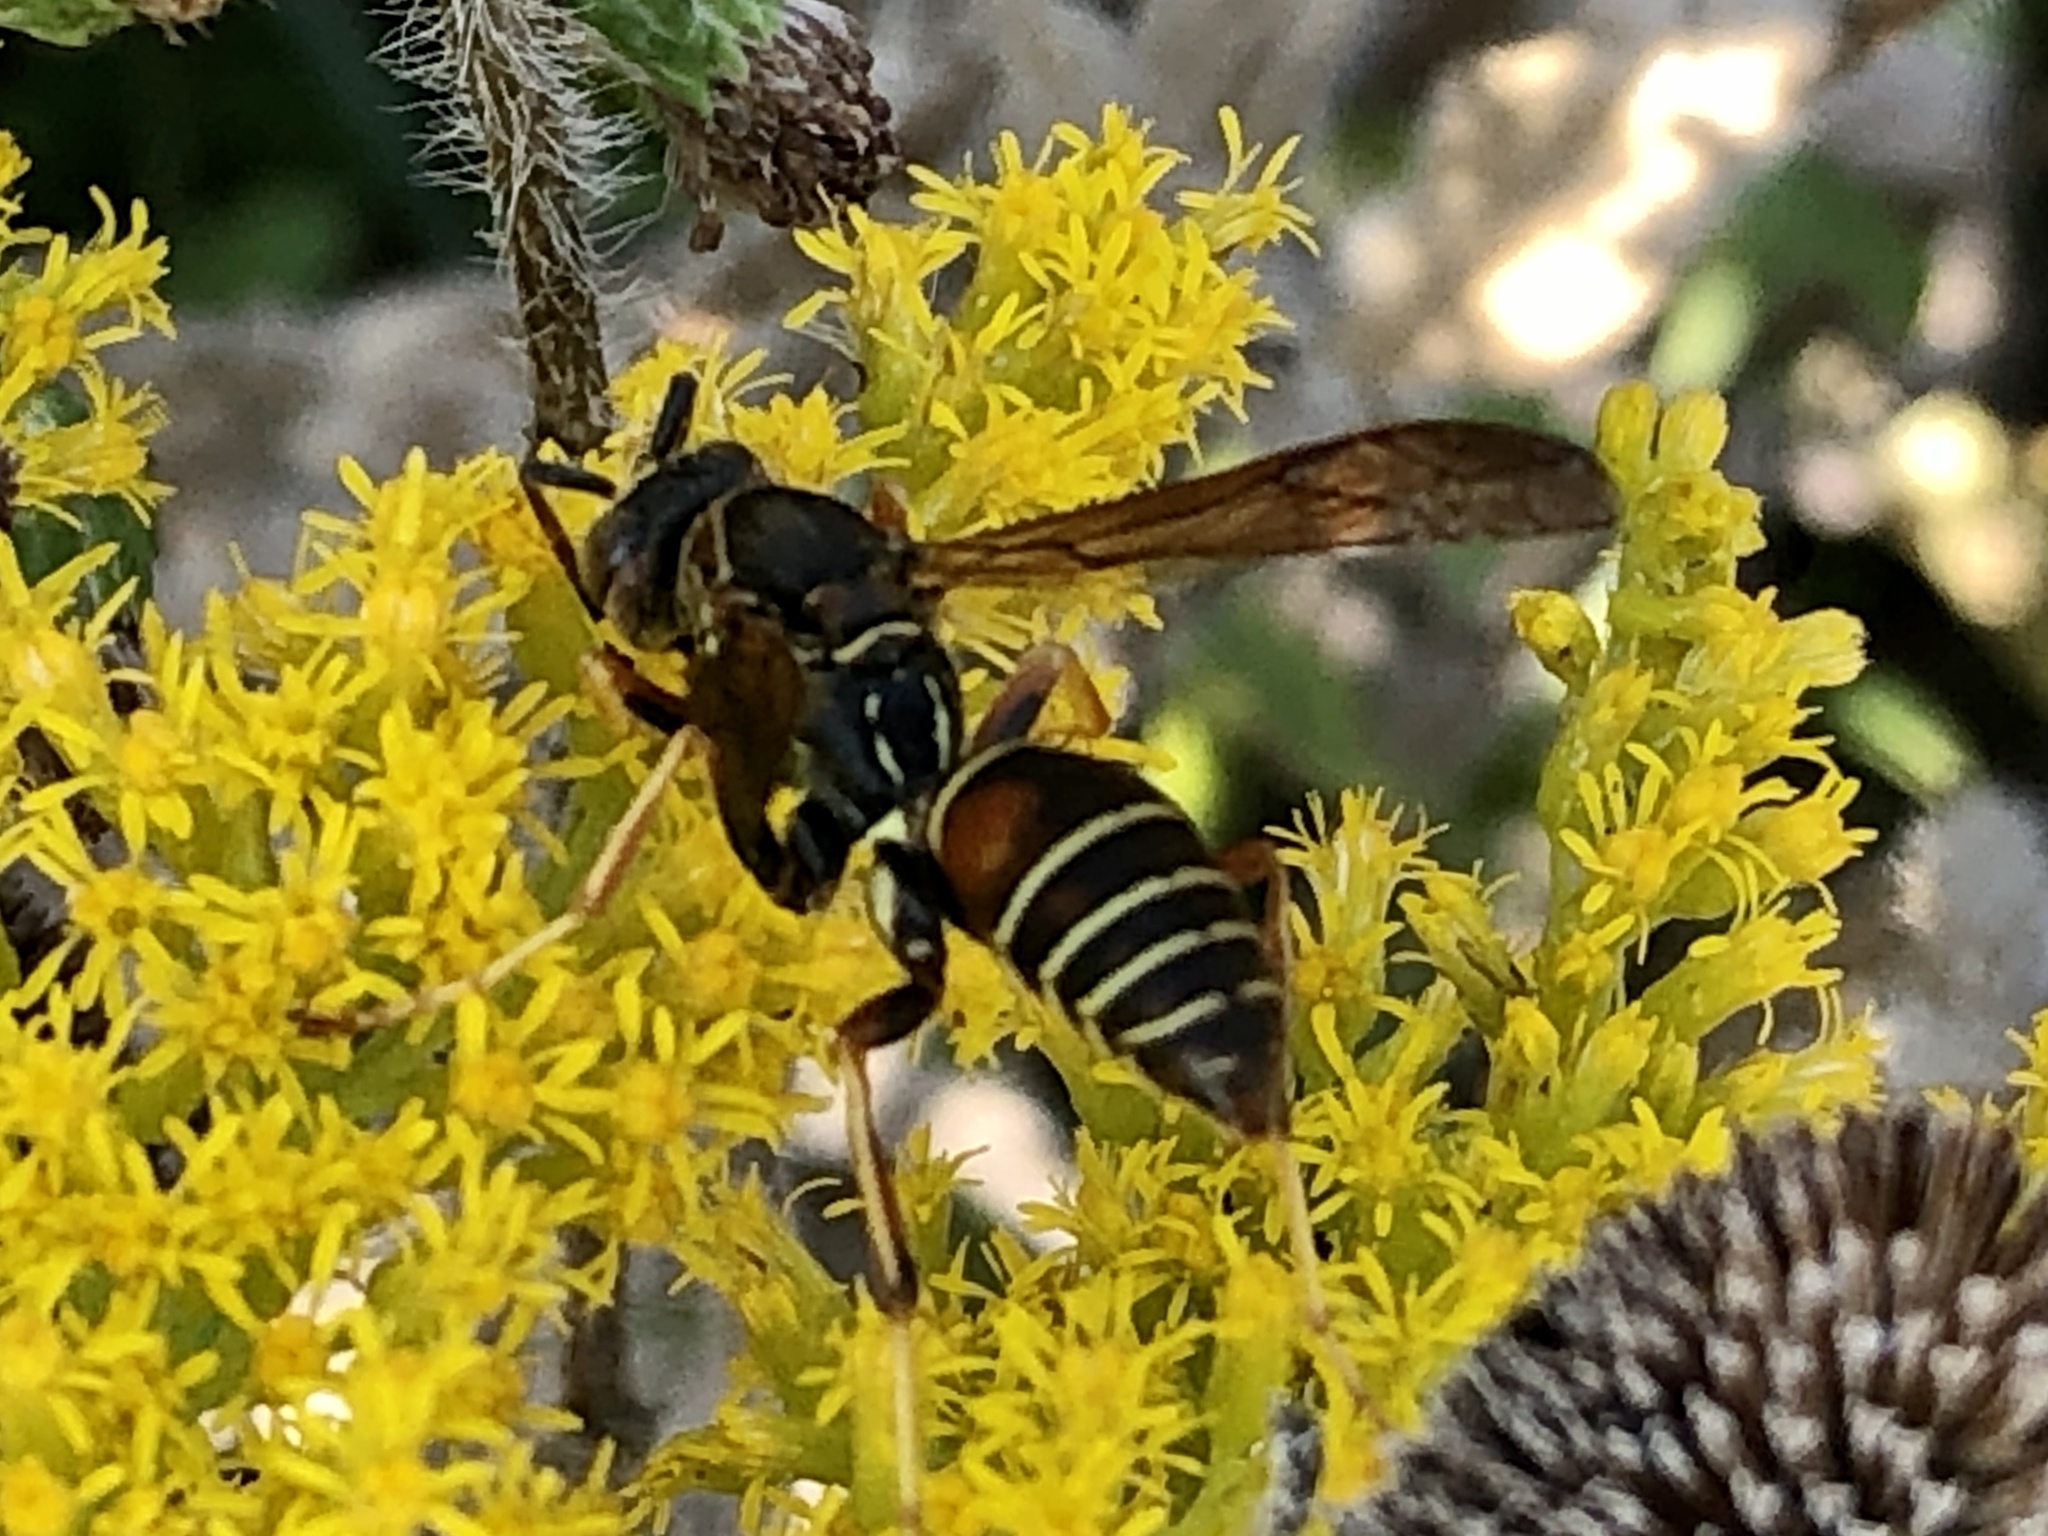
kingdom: Animalia
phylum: Arthropoda
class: Insecta
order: Hymenoptera
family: Eumenidae
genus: Polistes
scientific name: Polistes fuscatus
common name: Dark paper wasp
